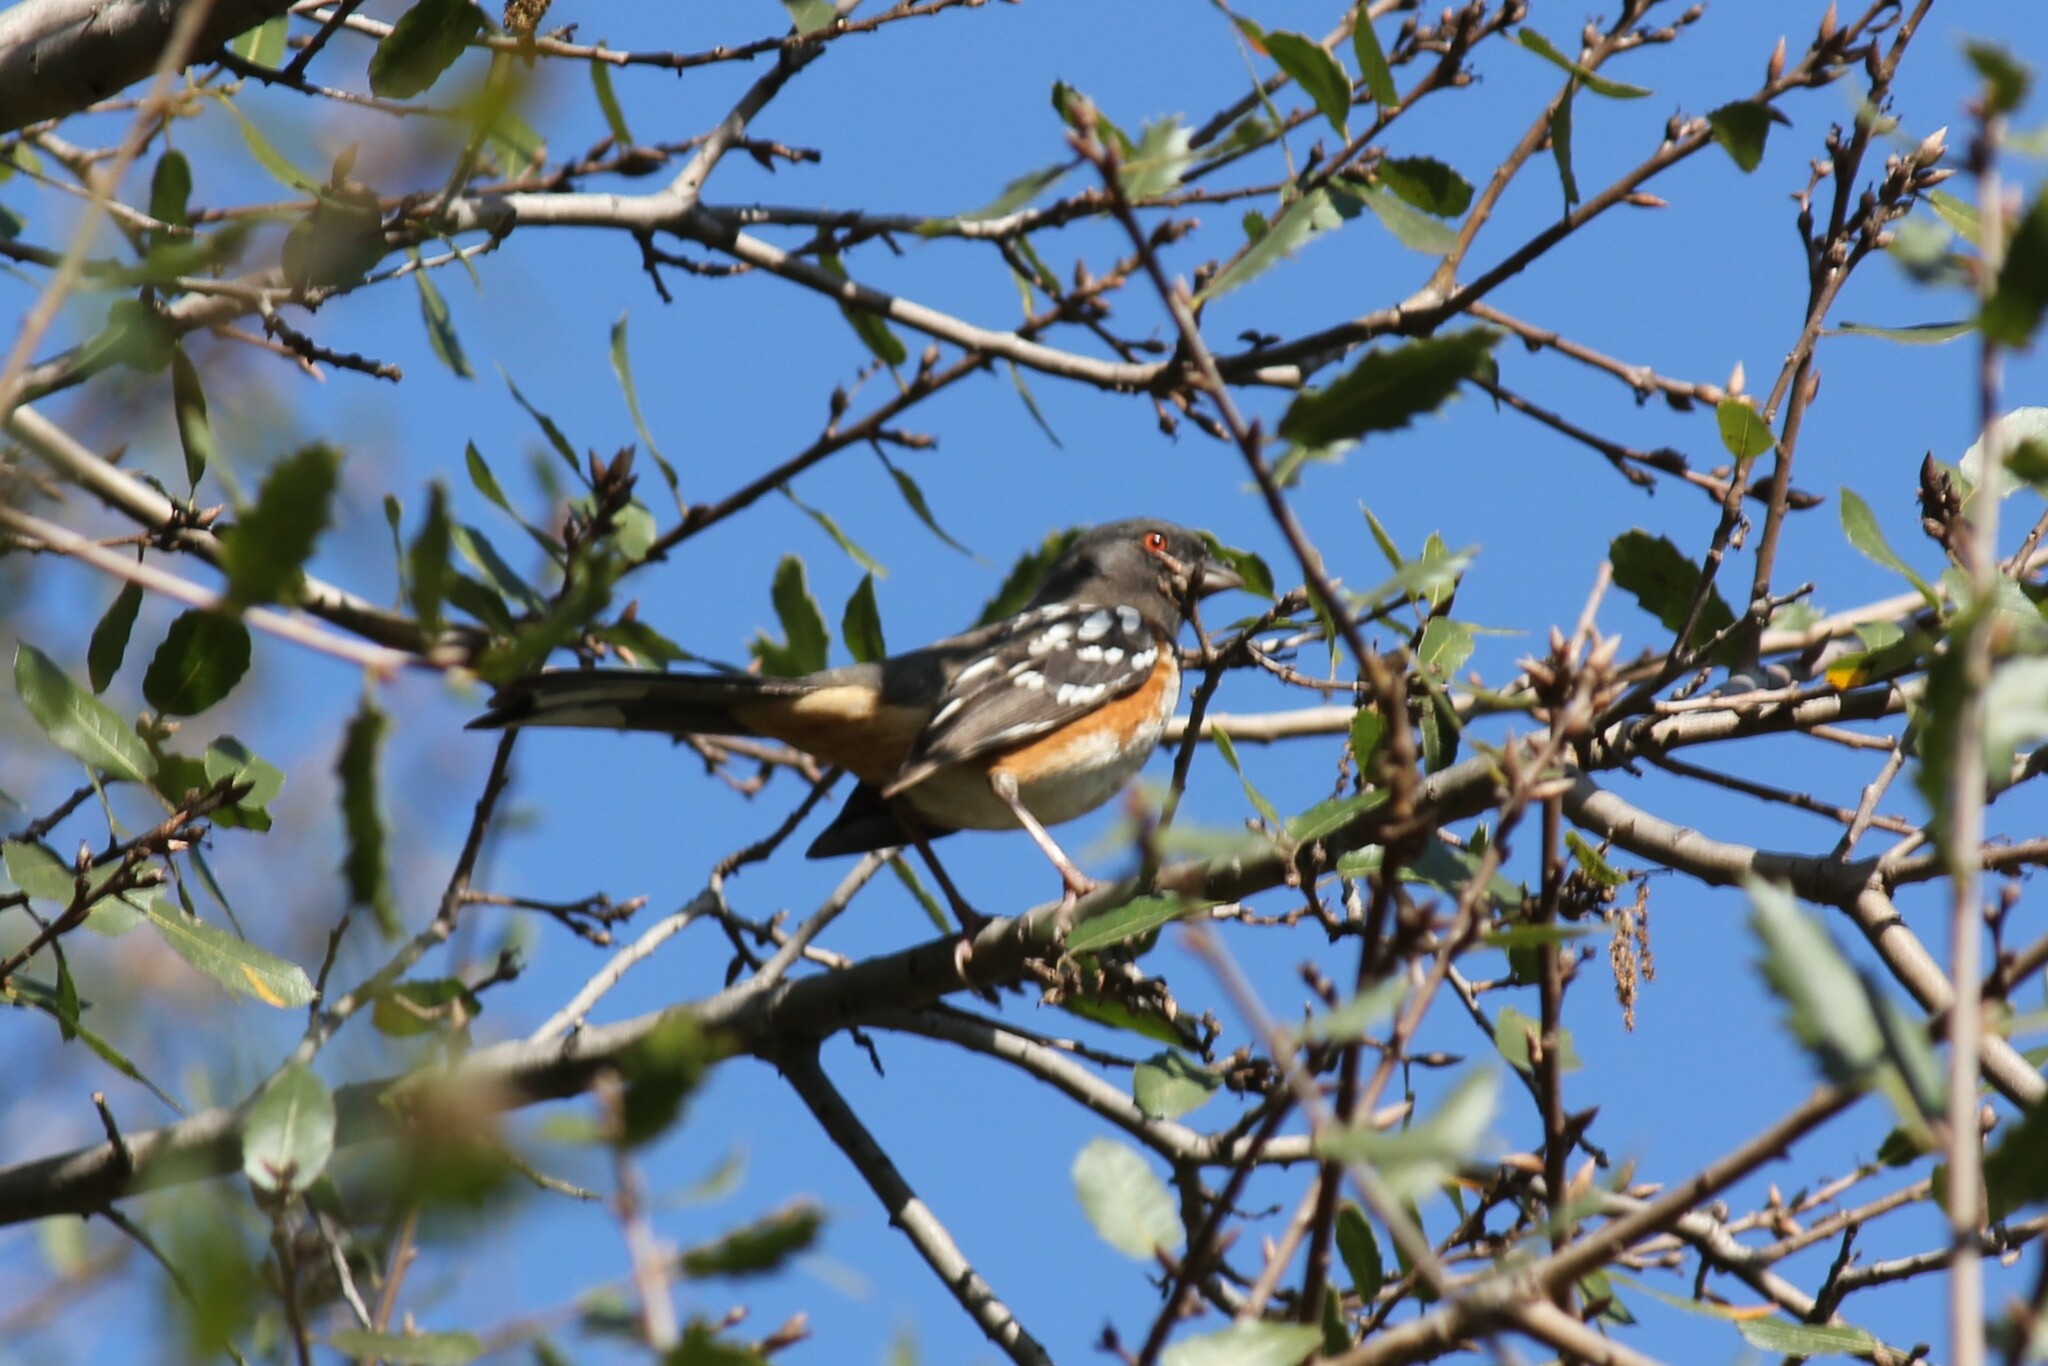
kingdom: Animalia
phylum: Chordata
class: Aves
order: Passeriformes
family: Passerellidae
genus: Pipilo
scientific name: Pipilo maculatus
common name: Spotted towhee
